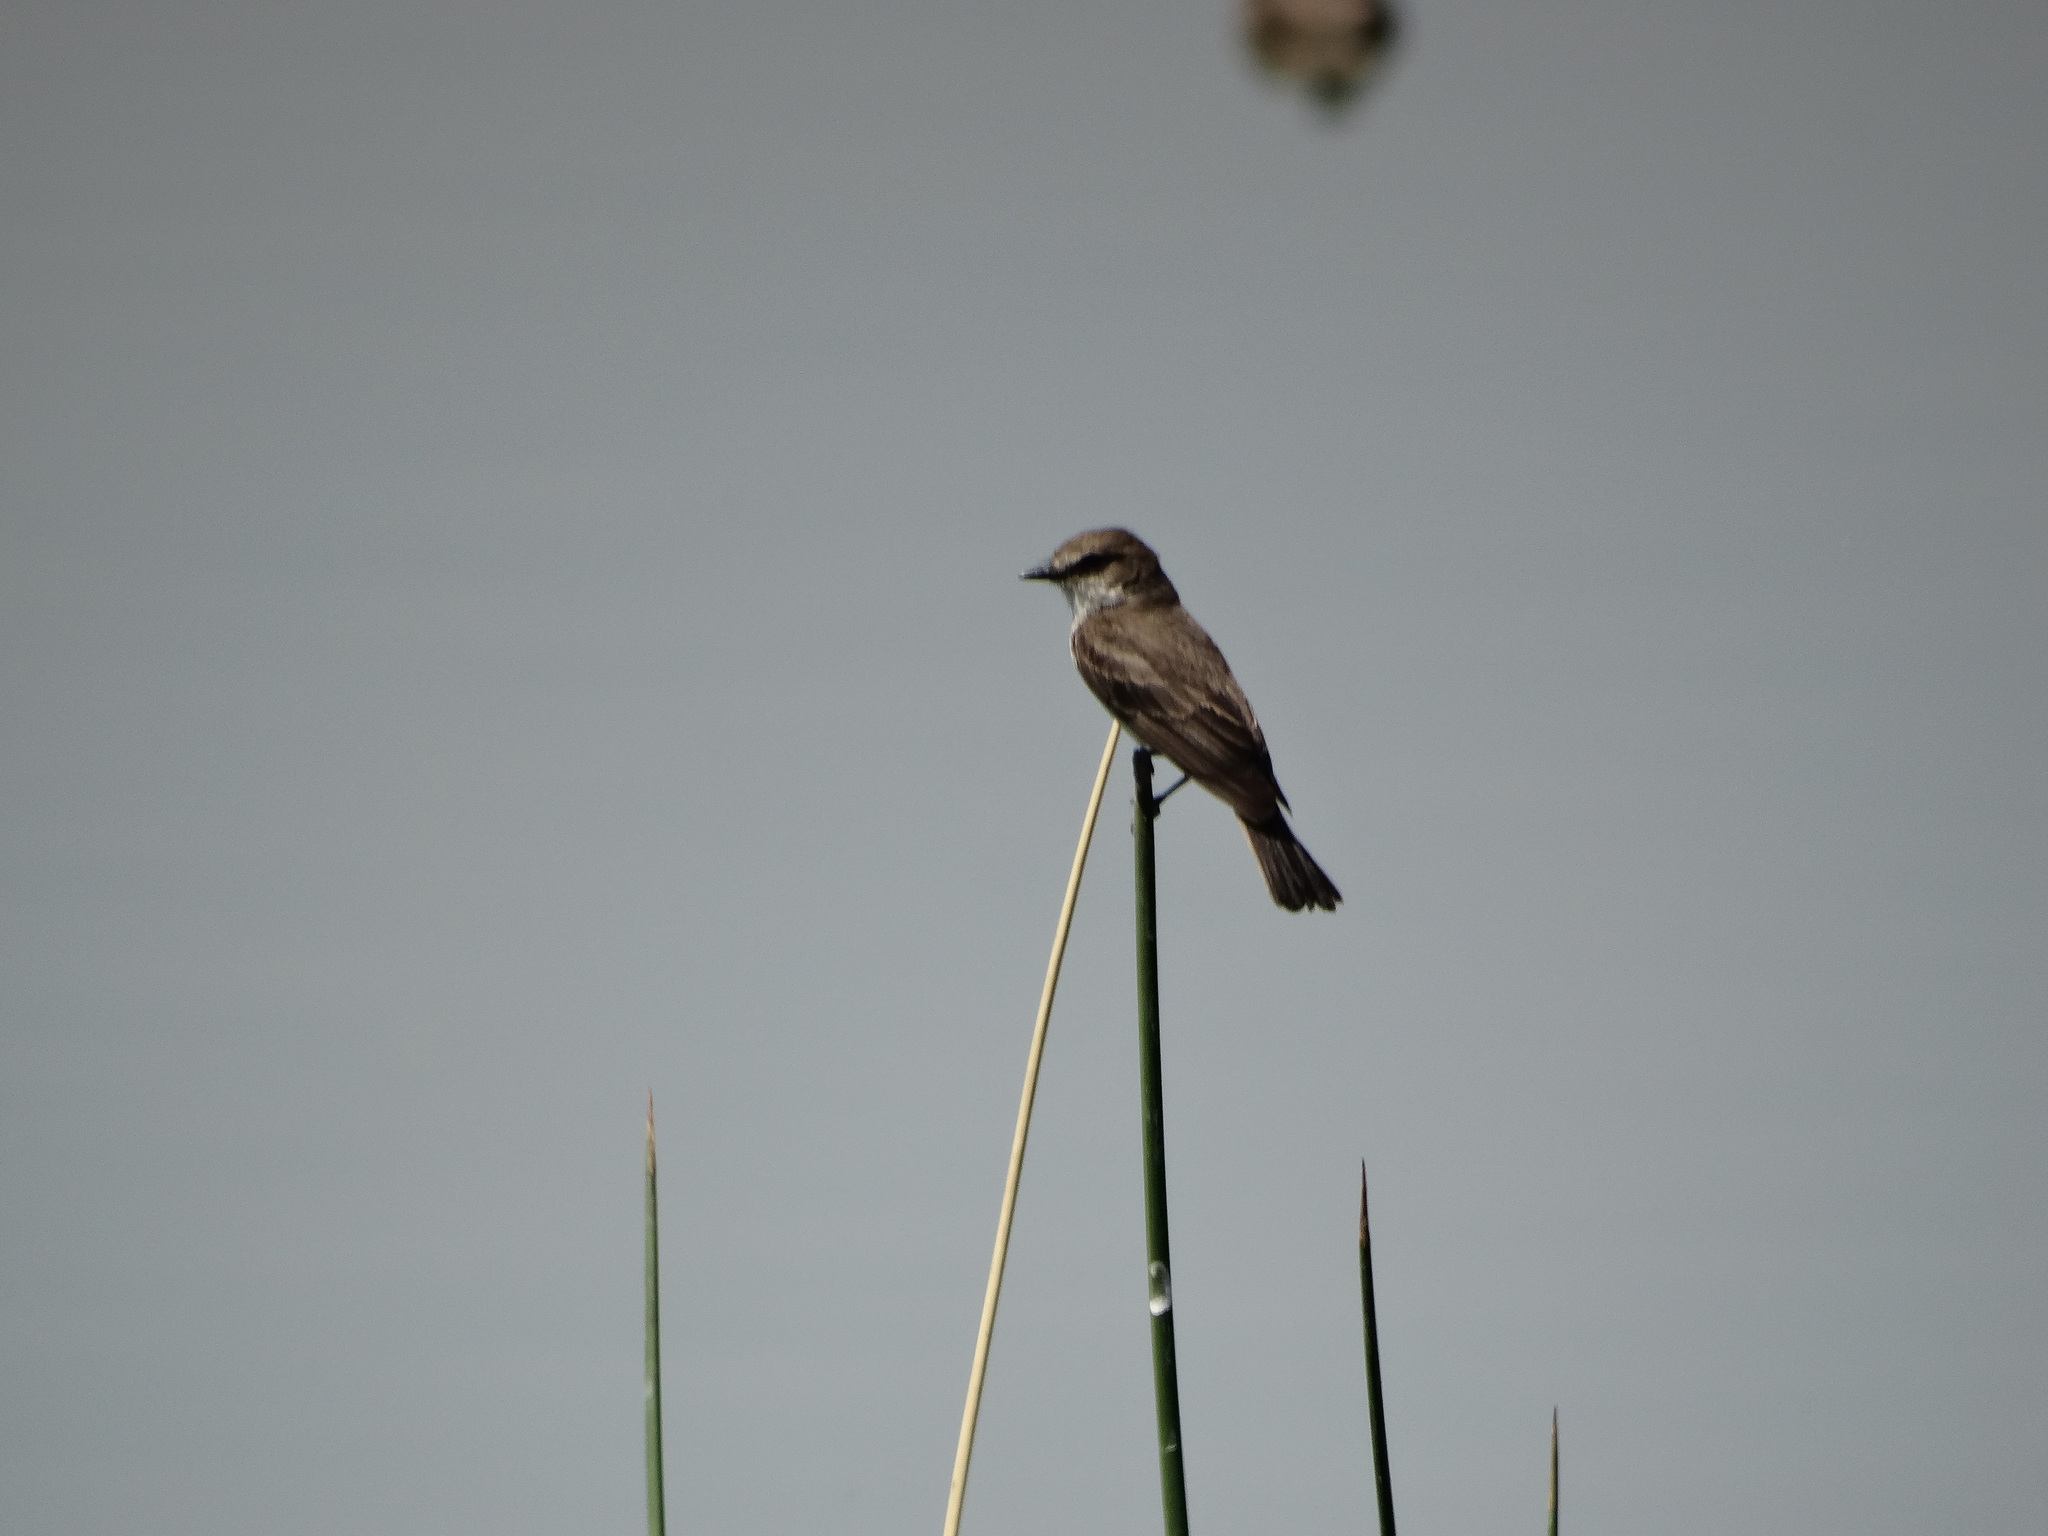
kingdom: Animalia
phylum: Chordata
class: Aves
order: Passeriformes
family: Tyrannidae
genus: Pyrocephalus
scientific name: Pyrocephalus rubinus
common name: Vermilion flycatcher
